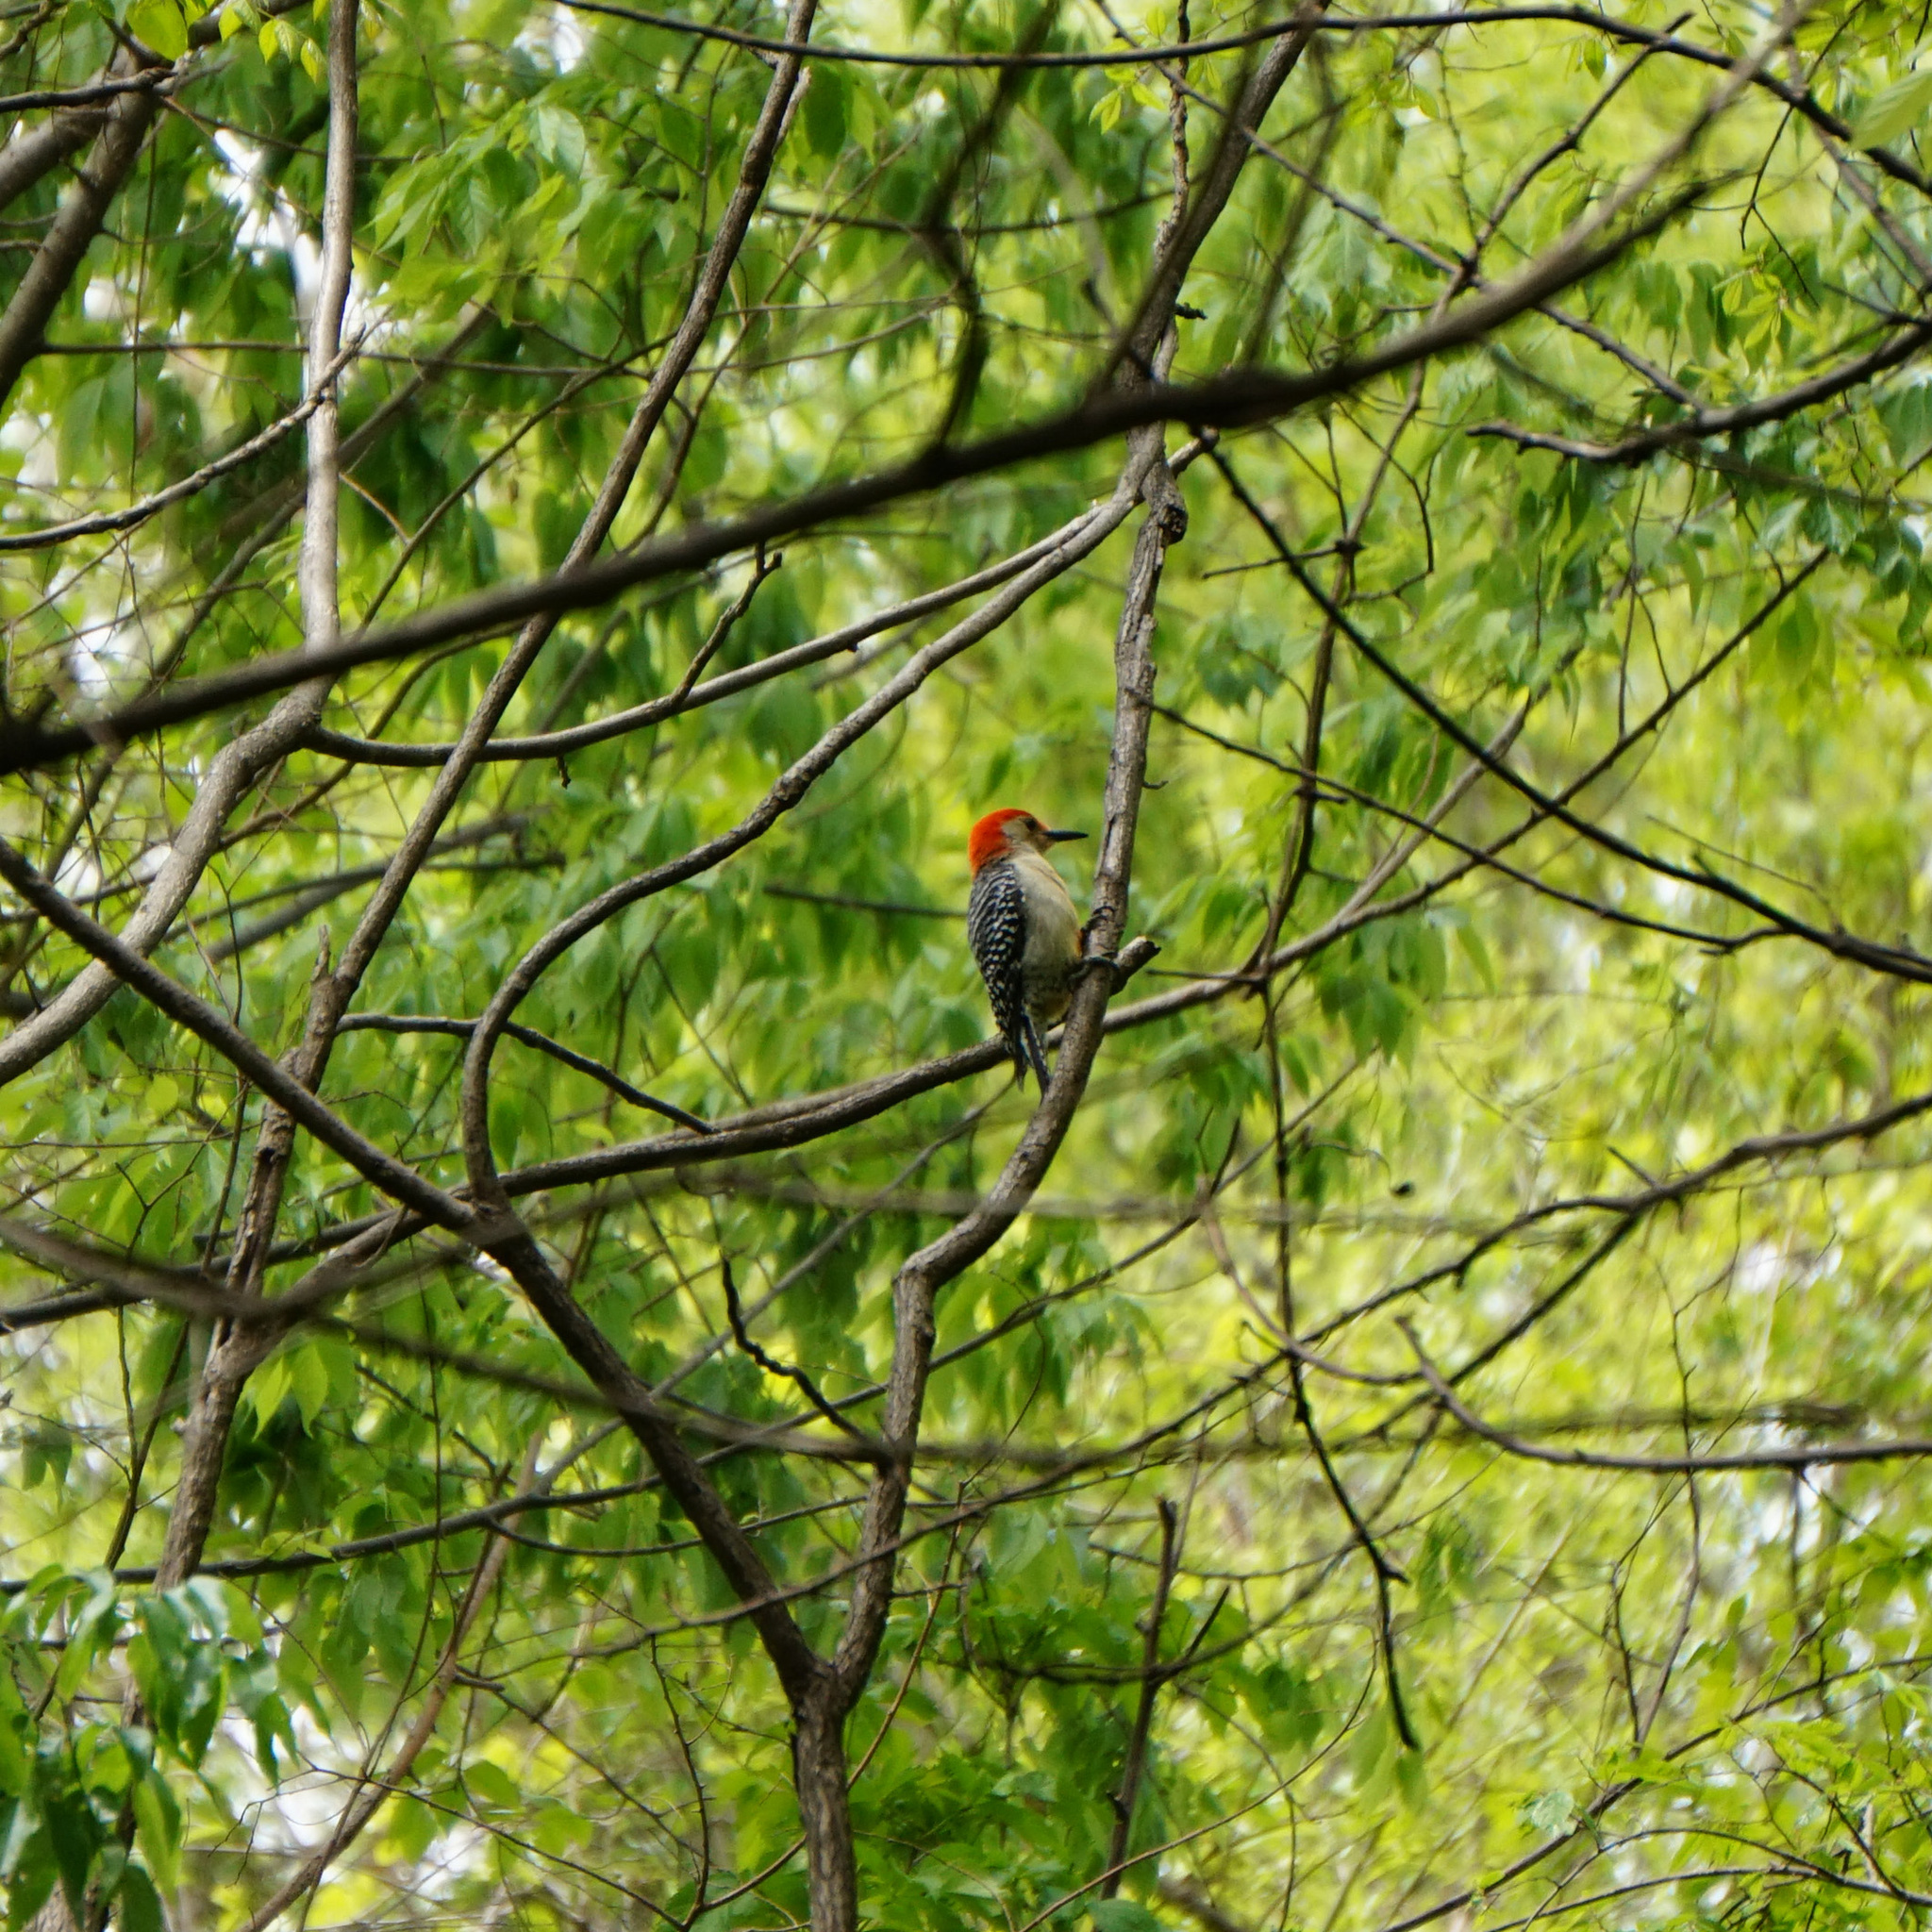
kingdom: Animalia
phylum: Chordata
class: Aves
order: Piciformes
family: Picidae
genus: Melanerpes
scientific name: Melanerpes carolinus
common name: Red-bellied woodpecker
